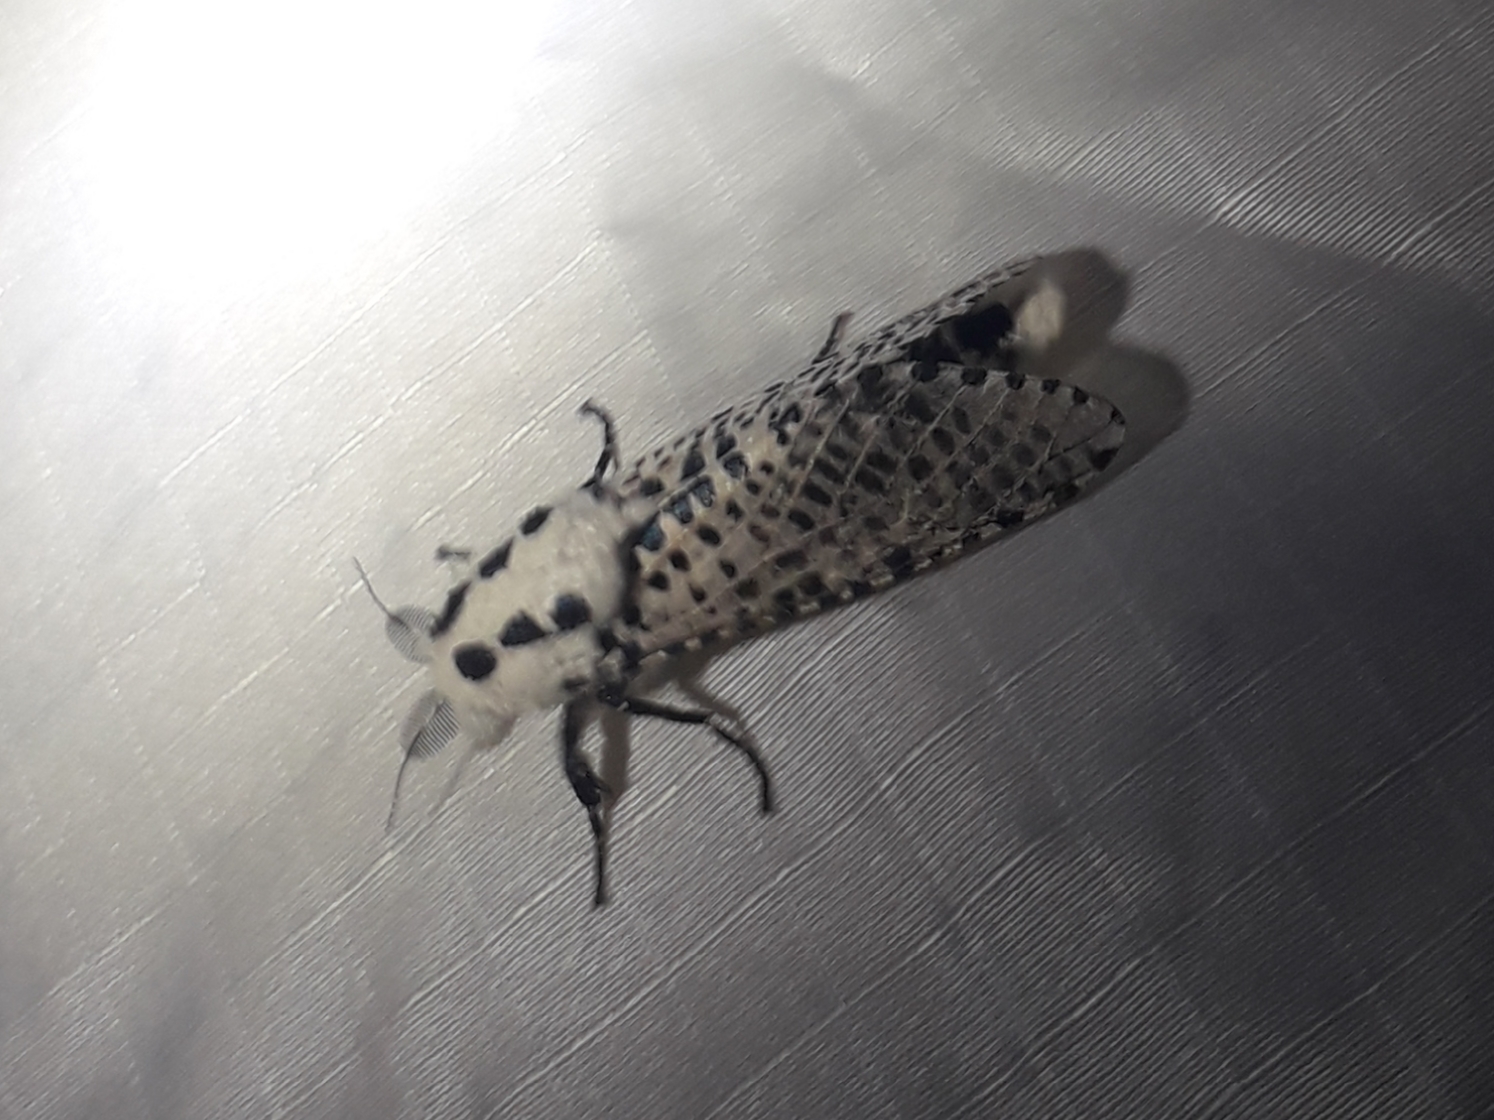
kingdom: Animalia
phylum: Arthropoda
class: Insecta
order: Lepidoptera
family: Cossidae
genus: Zeuzera
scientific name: Zeuzera pyrina
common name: Leopard moth
